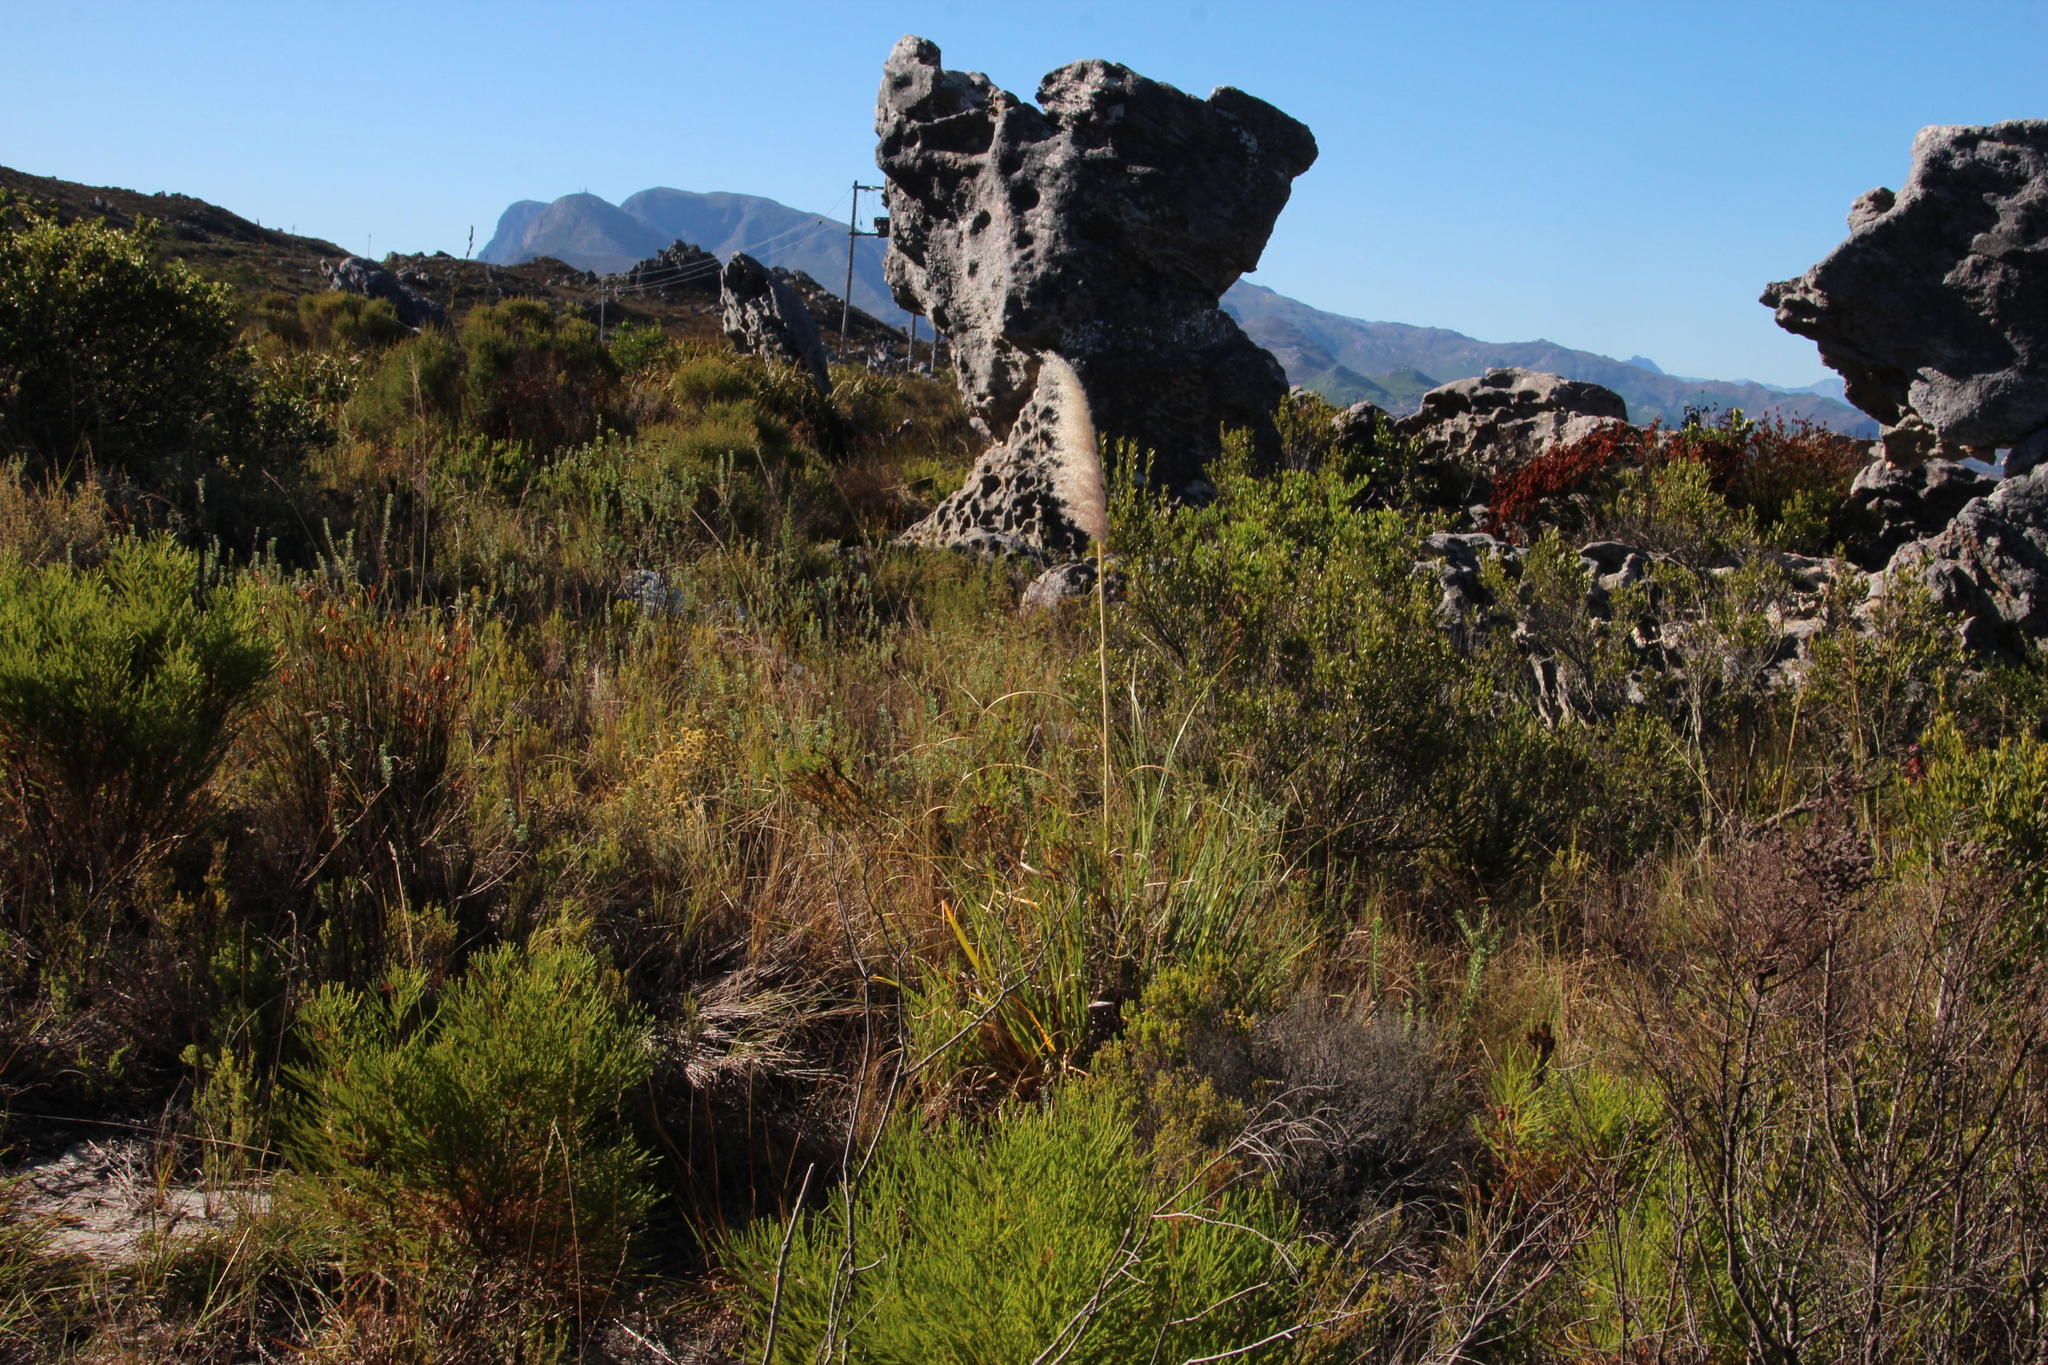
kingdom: Plantae
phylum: Tracheophyta
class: Liliopsida
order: Poales
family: Poaceae
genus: Cortaderia
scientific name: Cortaderia selloana
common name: Uruguayan pampas grass
